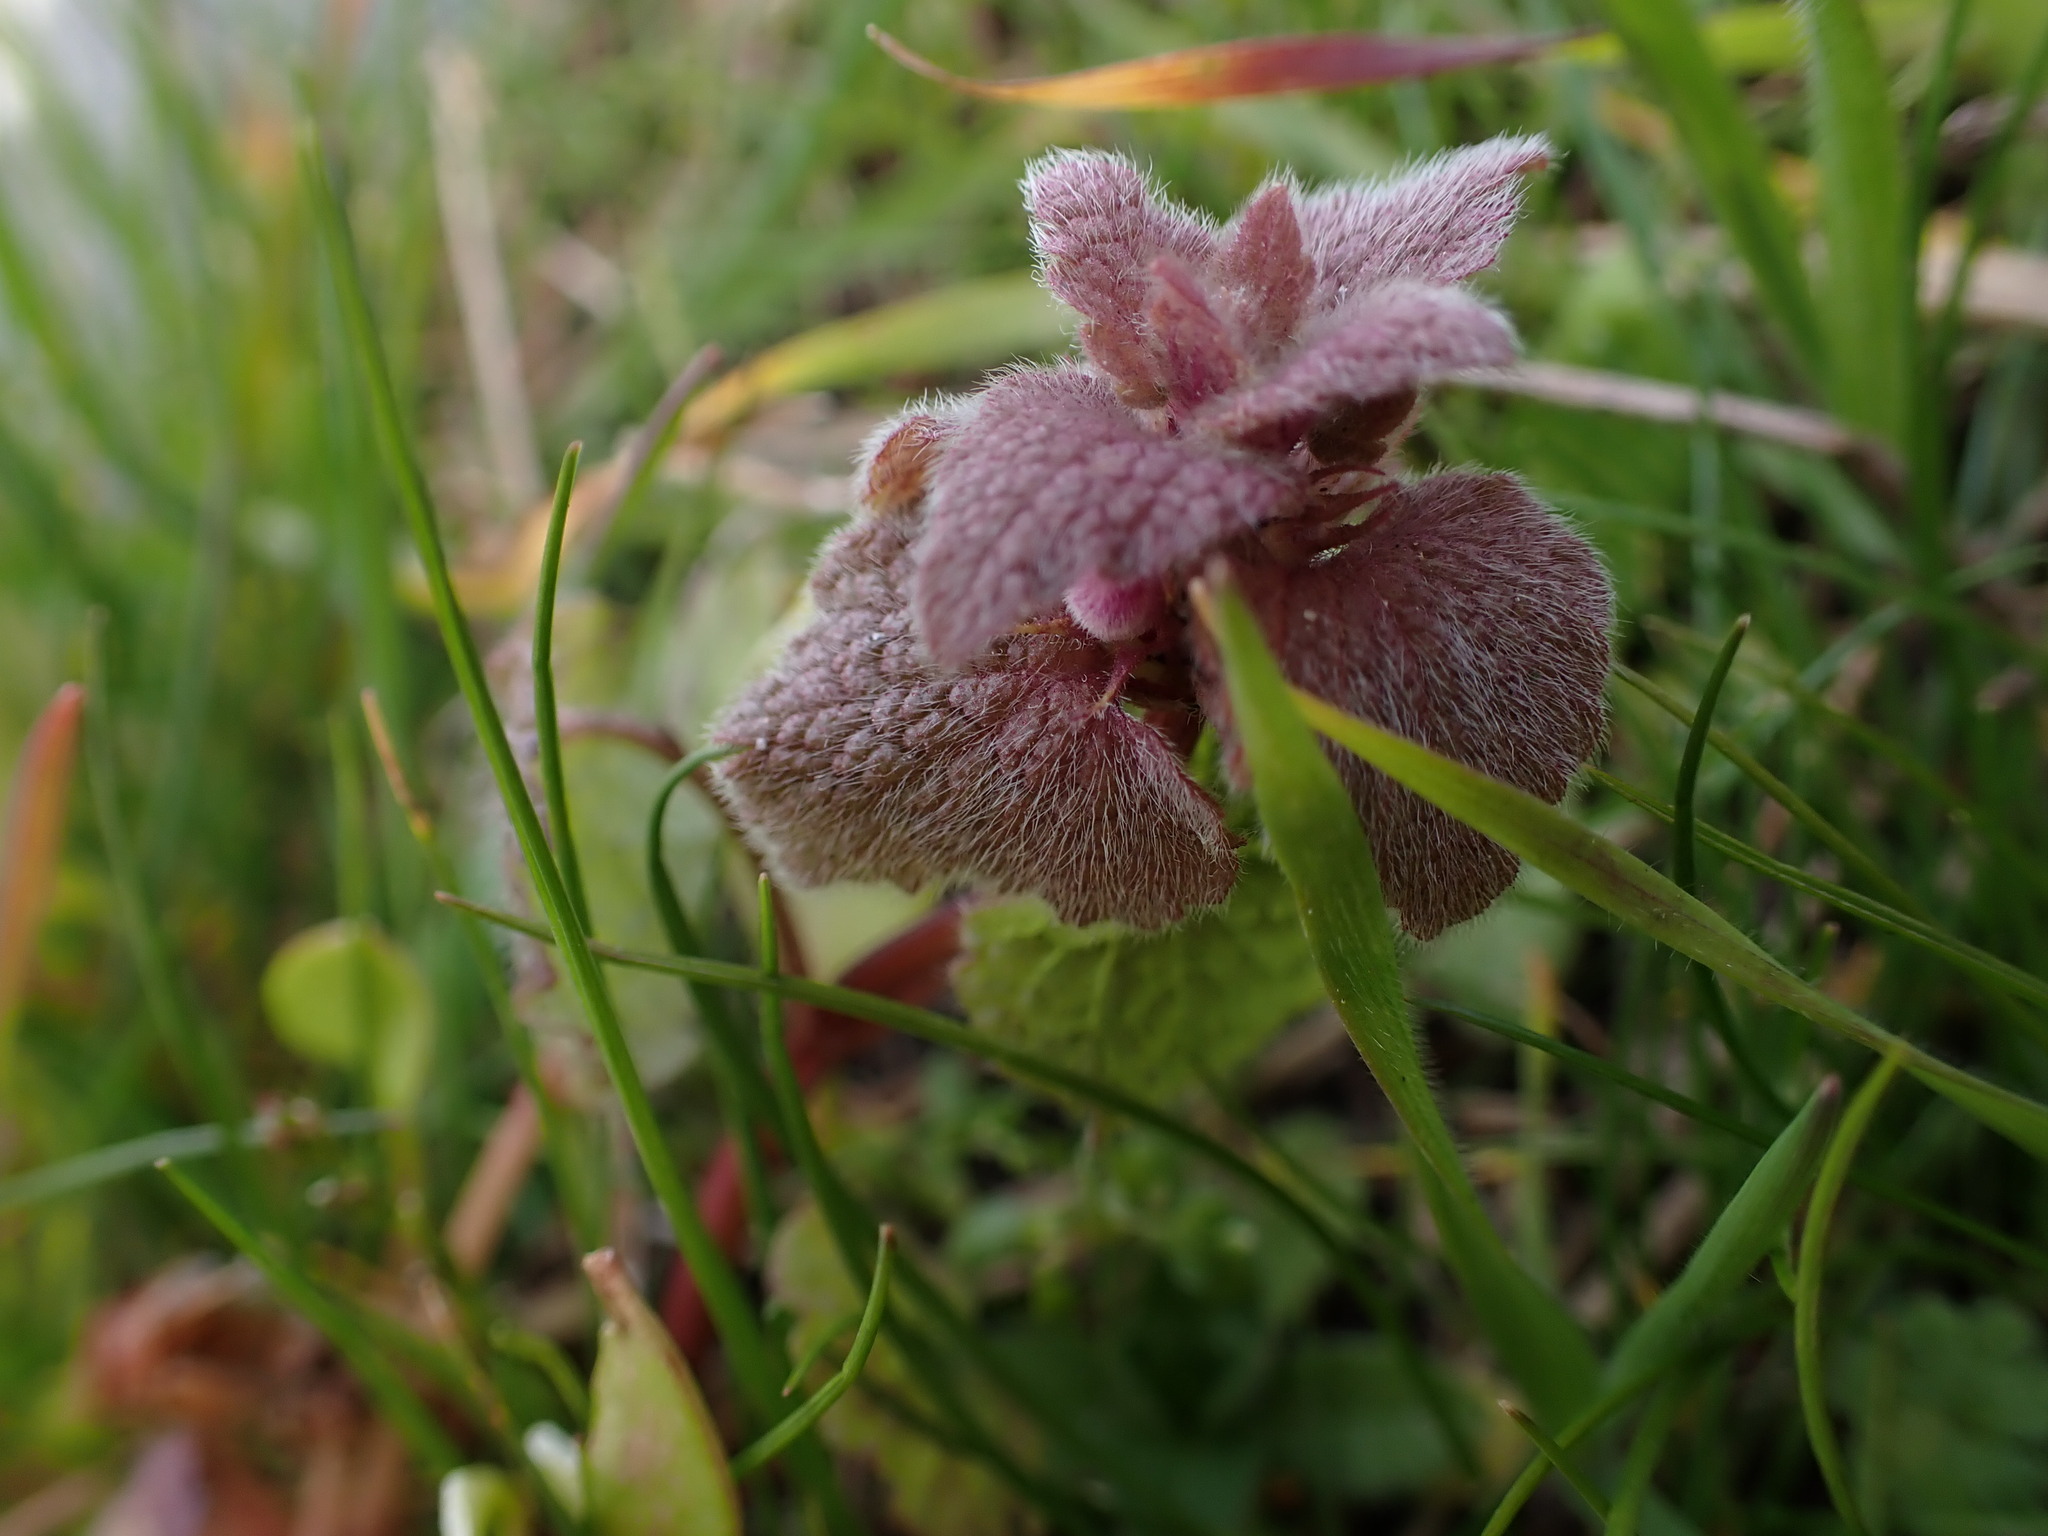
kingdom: Plantae
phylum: Tracheophyta
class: Magnoliopsida
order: Lamiales
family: Lamiaceae
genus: Lamium
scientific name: Lamium purpureum
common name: Red dead-nettle
